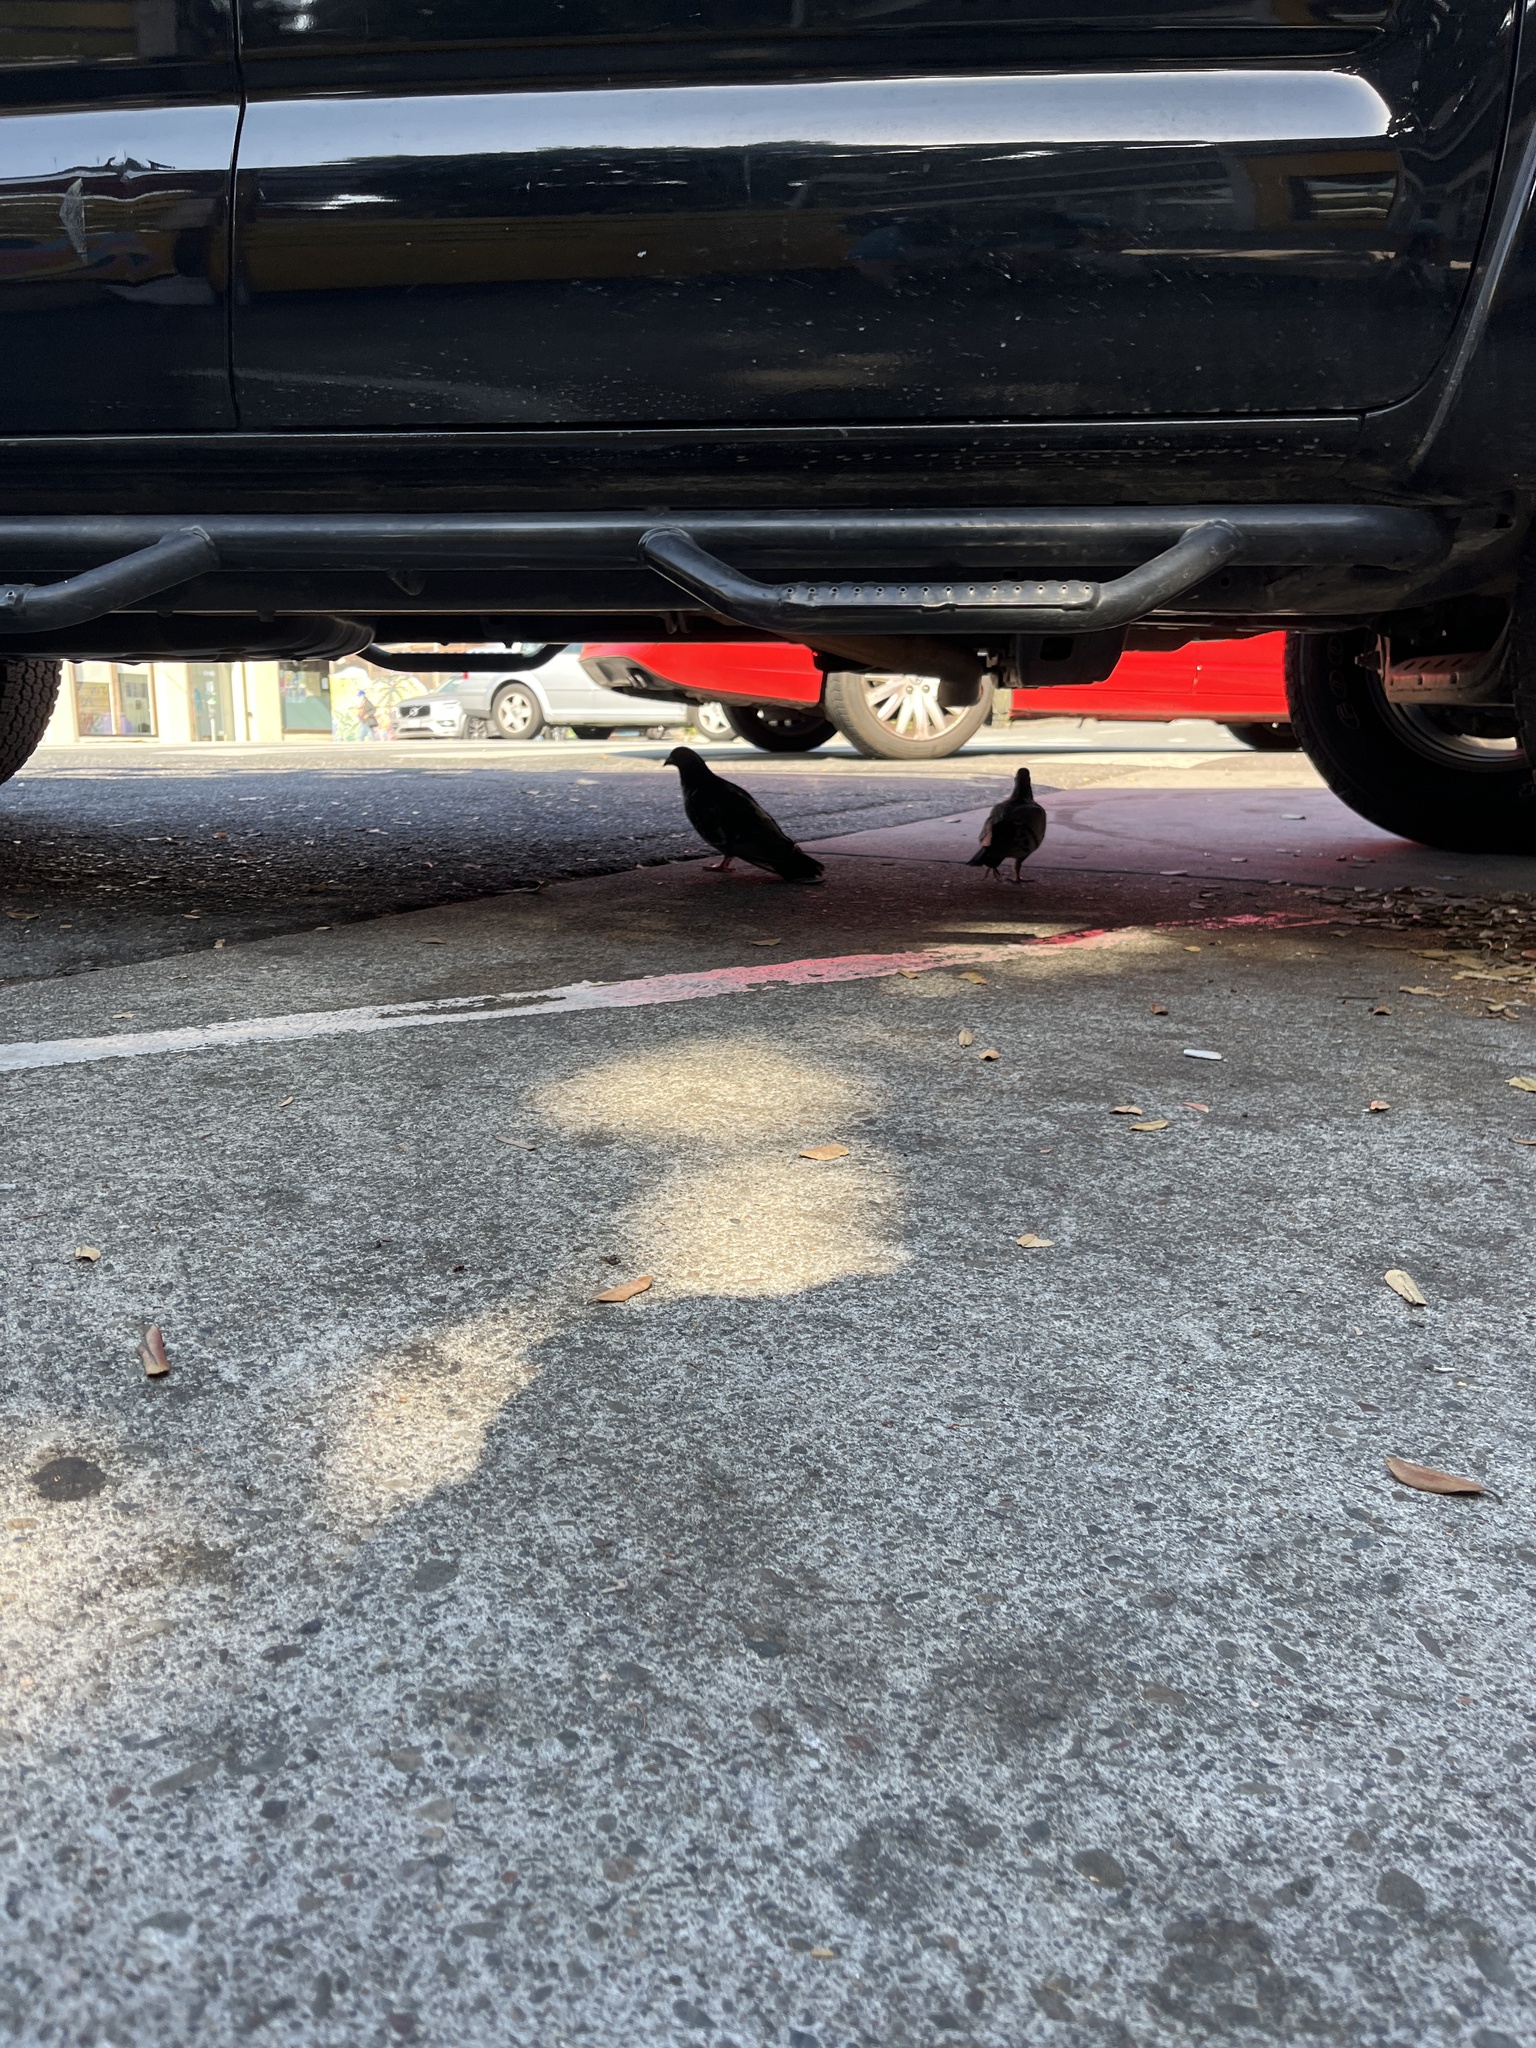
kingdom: Animalia
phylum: Chordata
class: Aves
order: Columbiformes
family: Columbidae
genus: Columba
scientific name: Columba livia
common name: Rock pigeon
